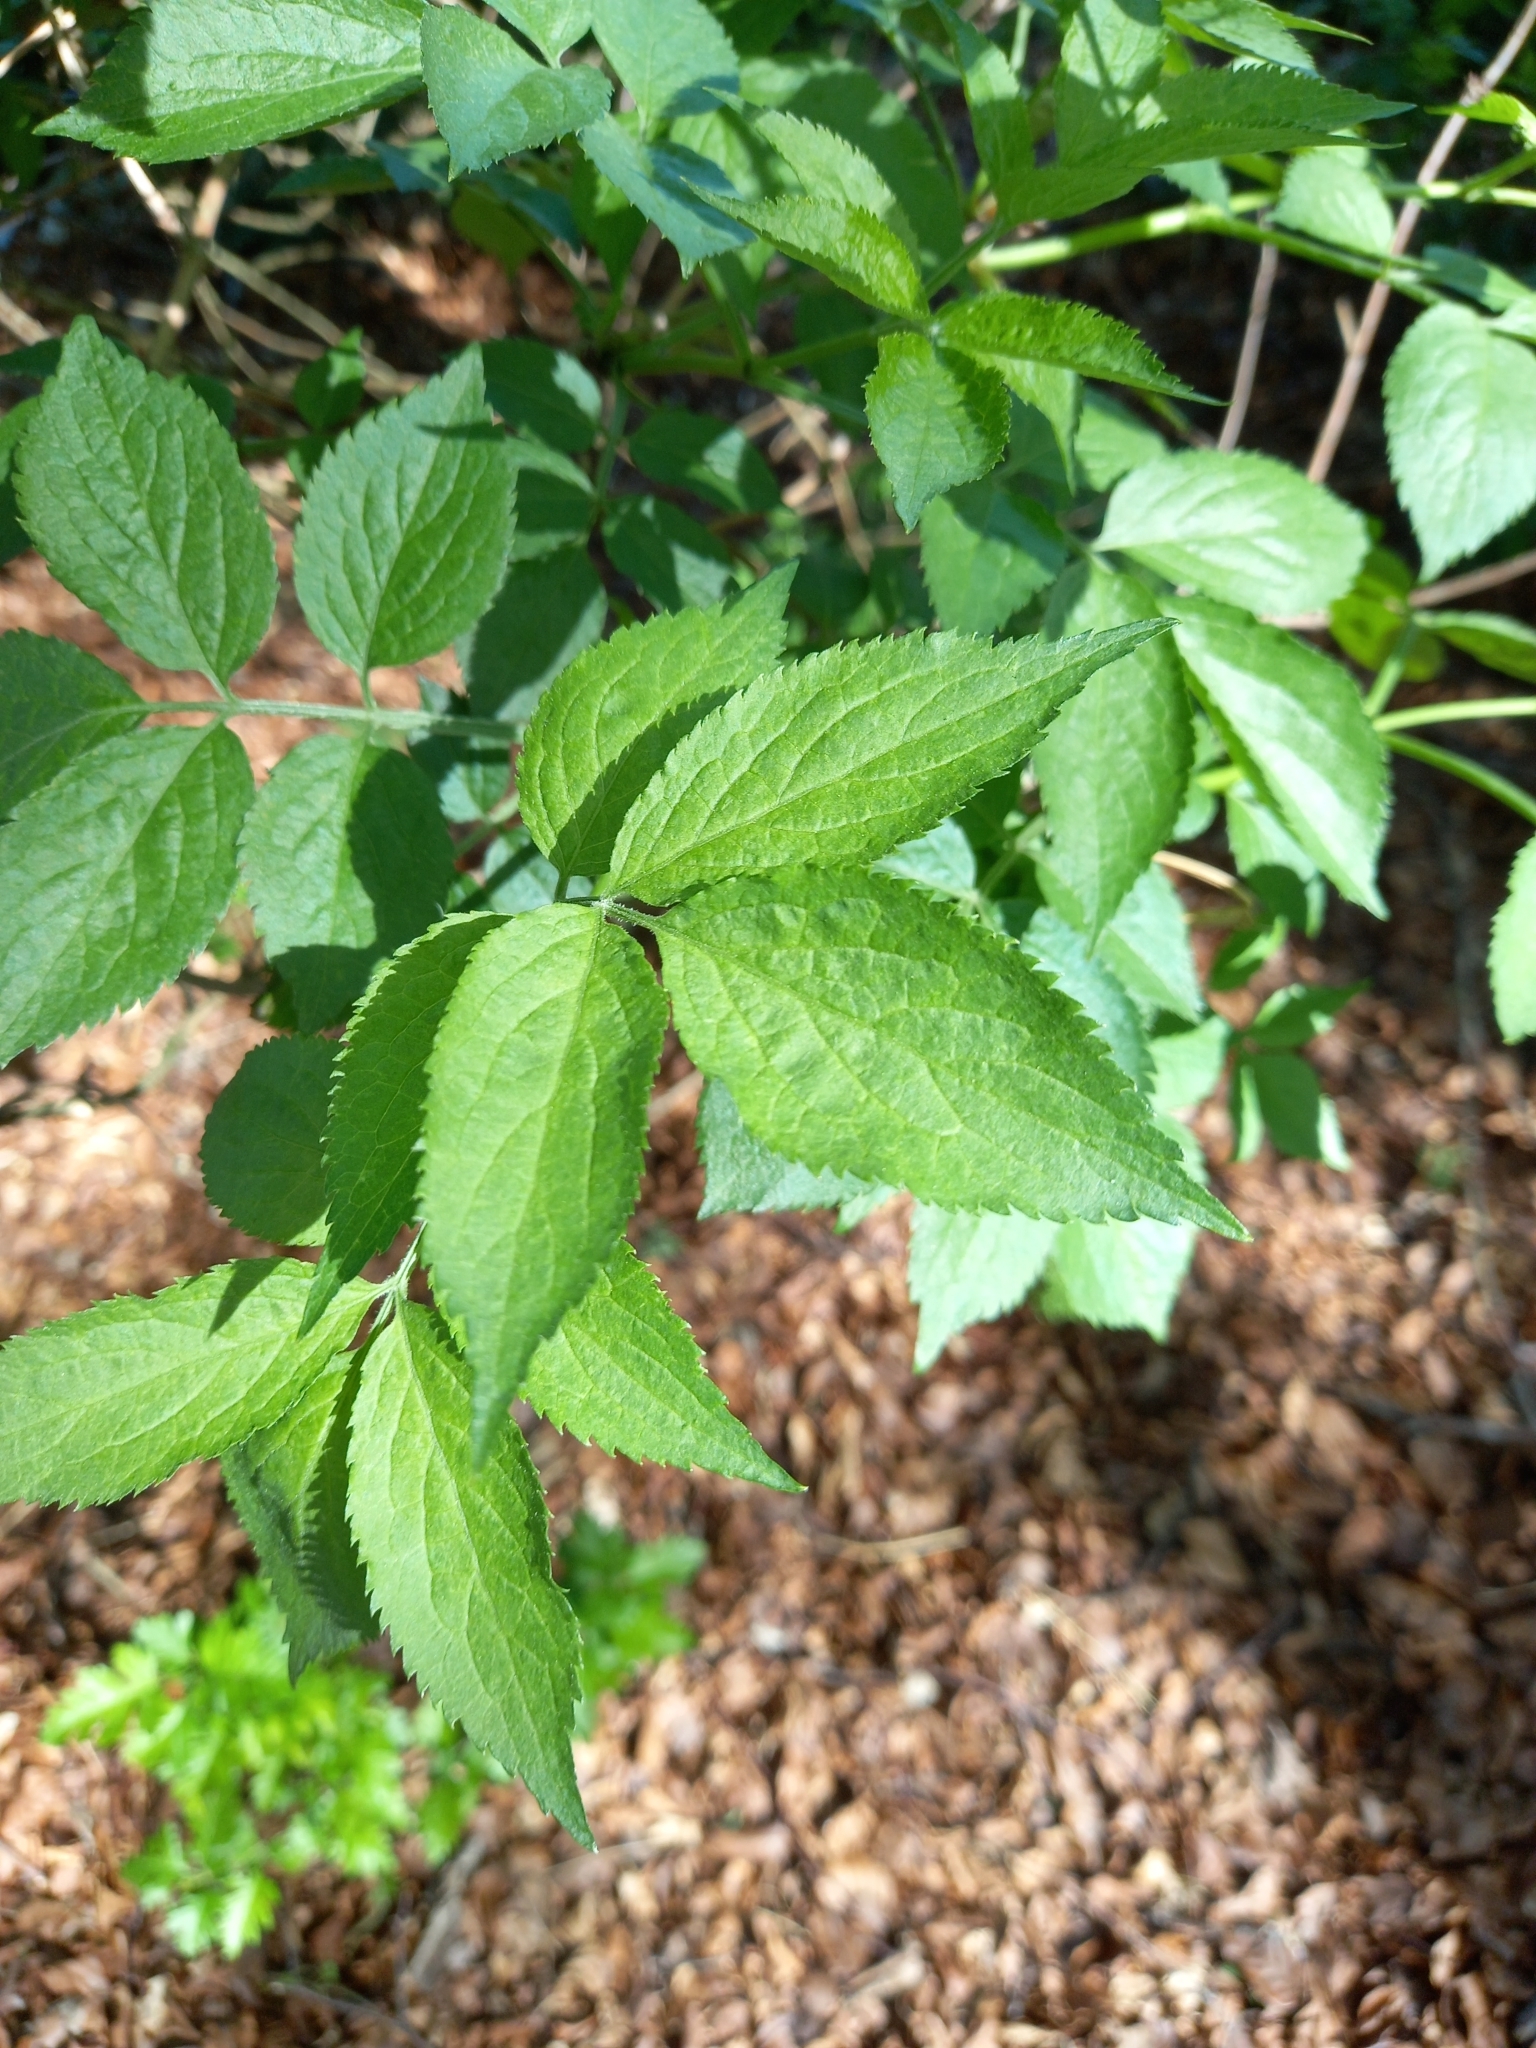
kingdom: Plantae
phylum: Tracheophyta
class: Magnoliopsida
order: Dipsacales
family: Viburnaceae
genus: Sambucus
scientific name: Sambucus nigra
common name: Elder
